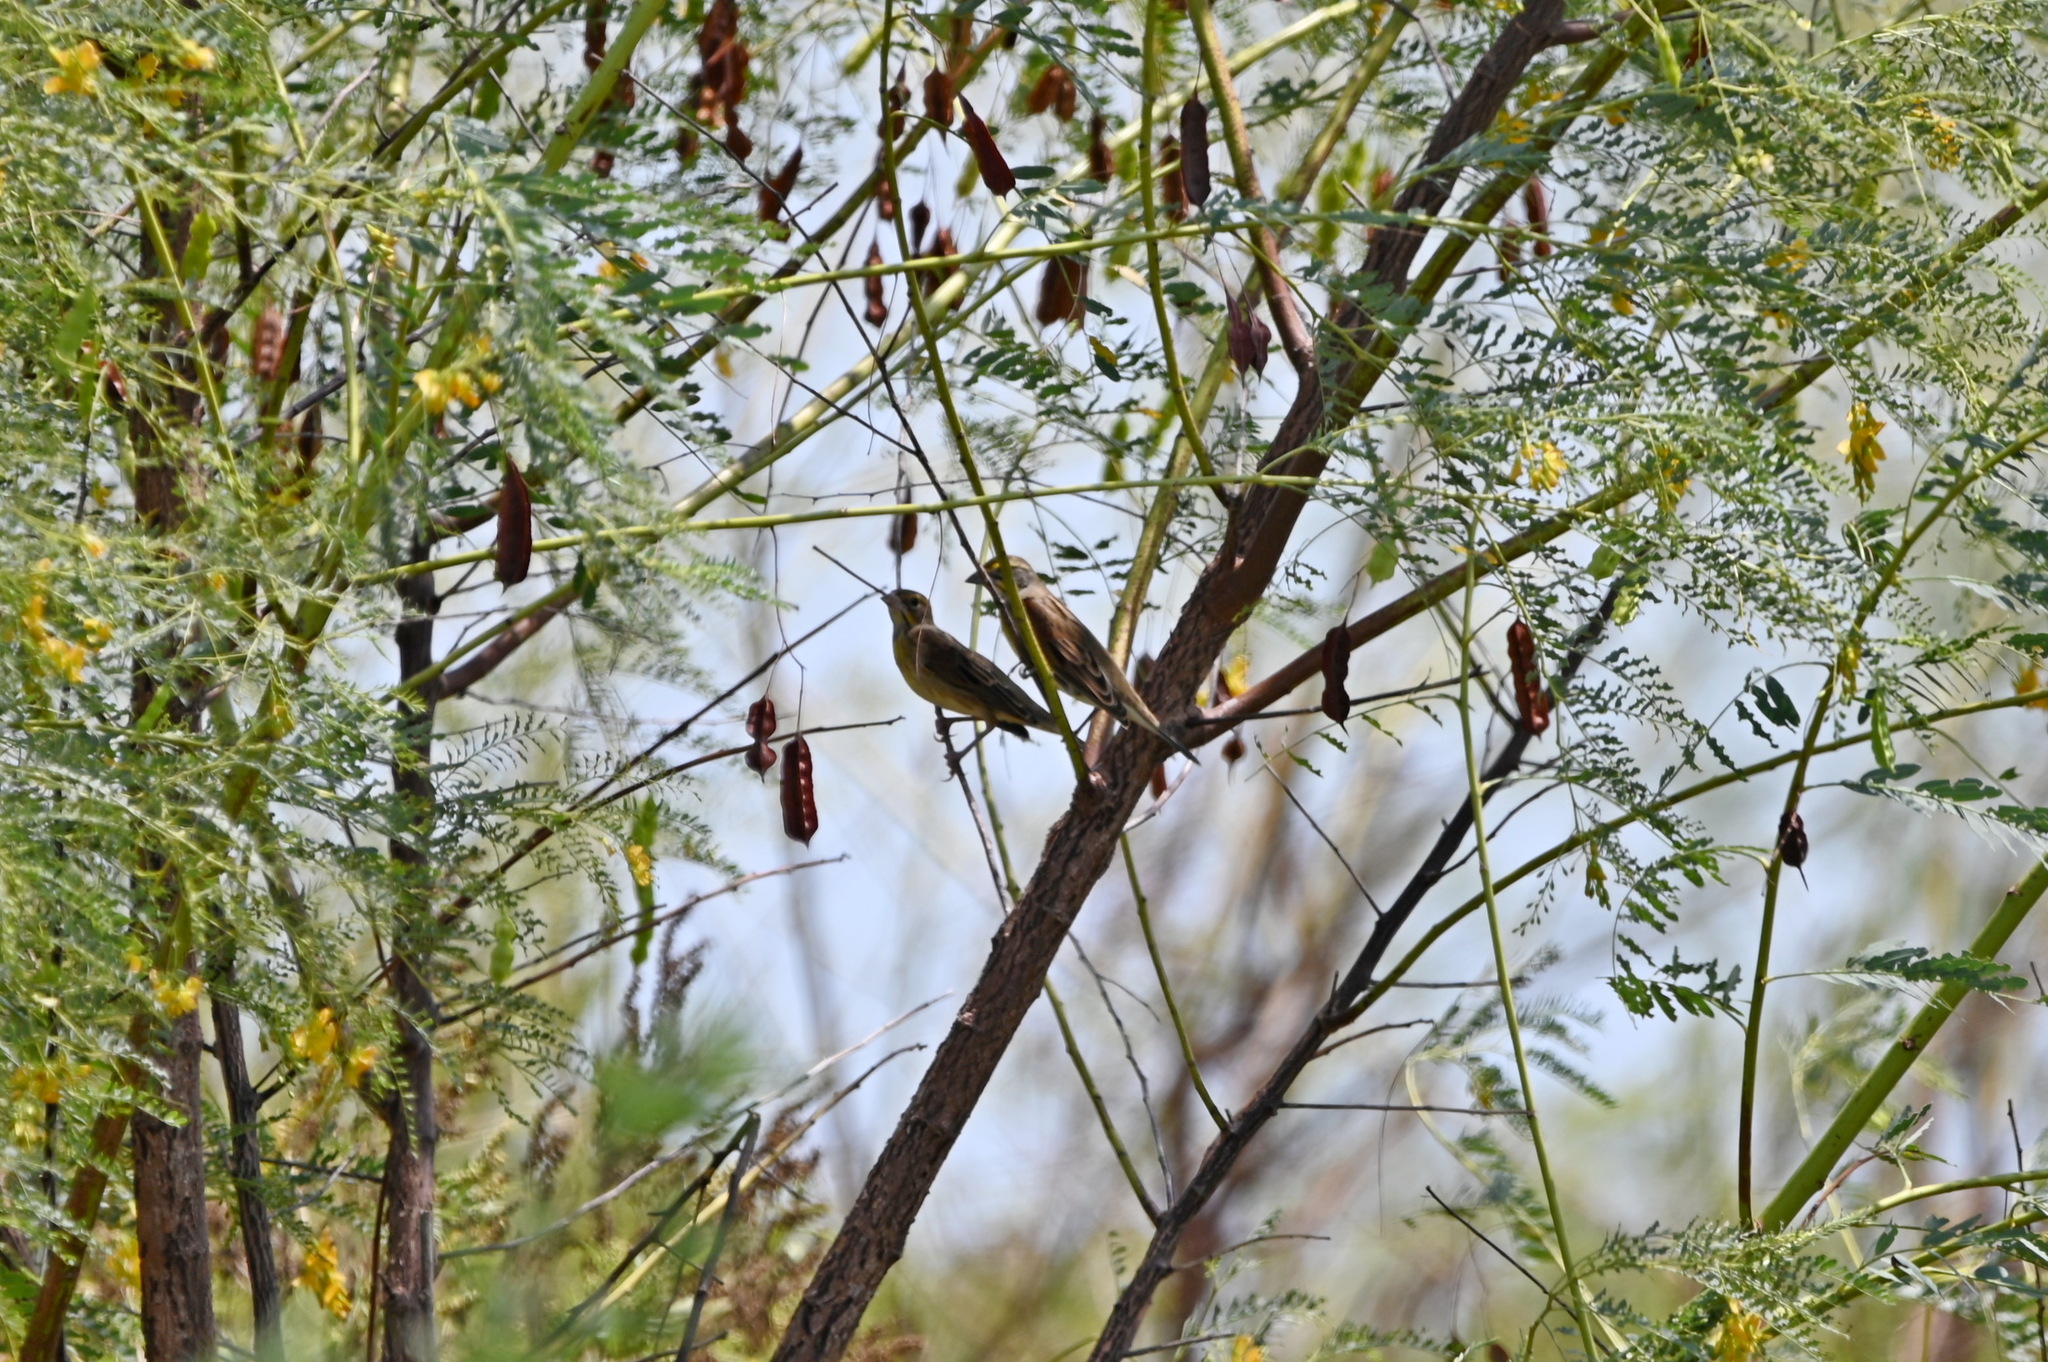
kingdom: Animalia
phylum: Chordata
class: Aves
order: Passeriformes
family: Cardinalidae
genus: Spiza
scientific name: Spiza americana
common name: Dickcissel
